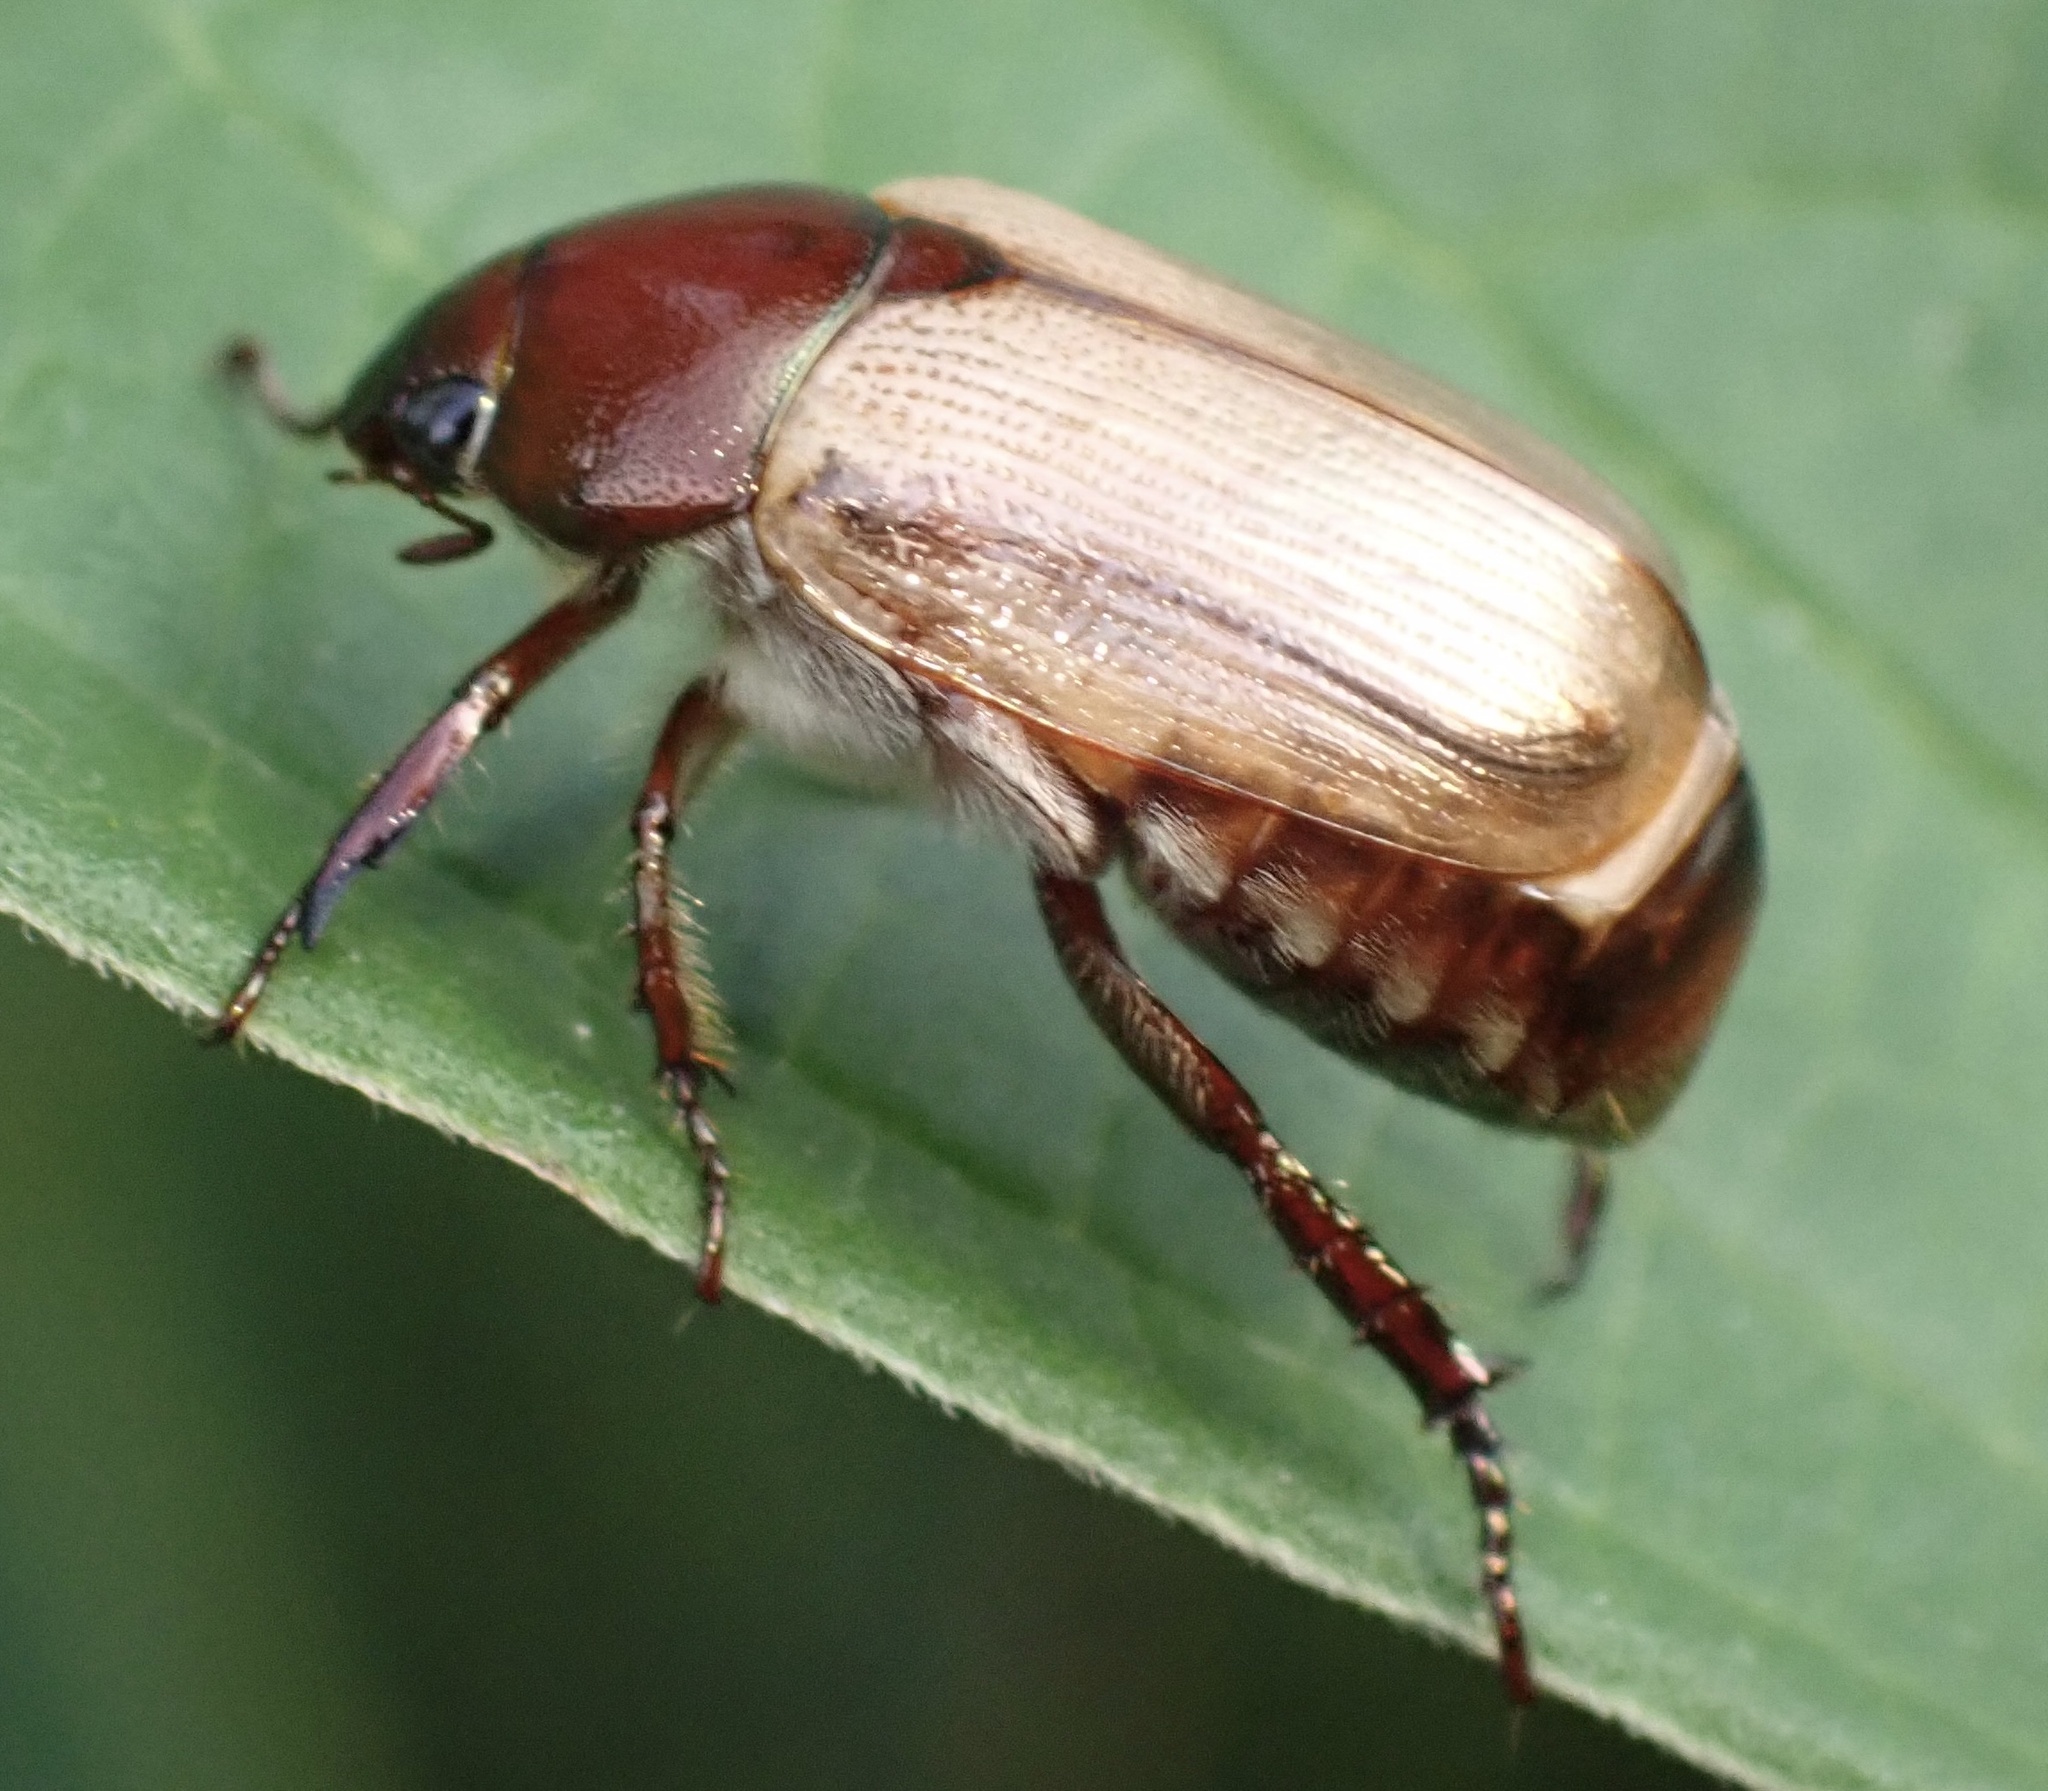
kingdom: Animalia
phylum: Arthropoda
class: Insecta
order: Coleoptera
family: Scarabaeidae
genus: Anomala
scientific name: Anomala brachycaula
